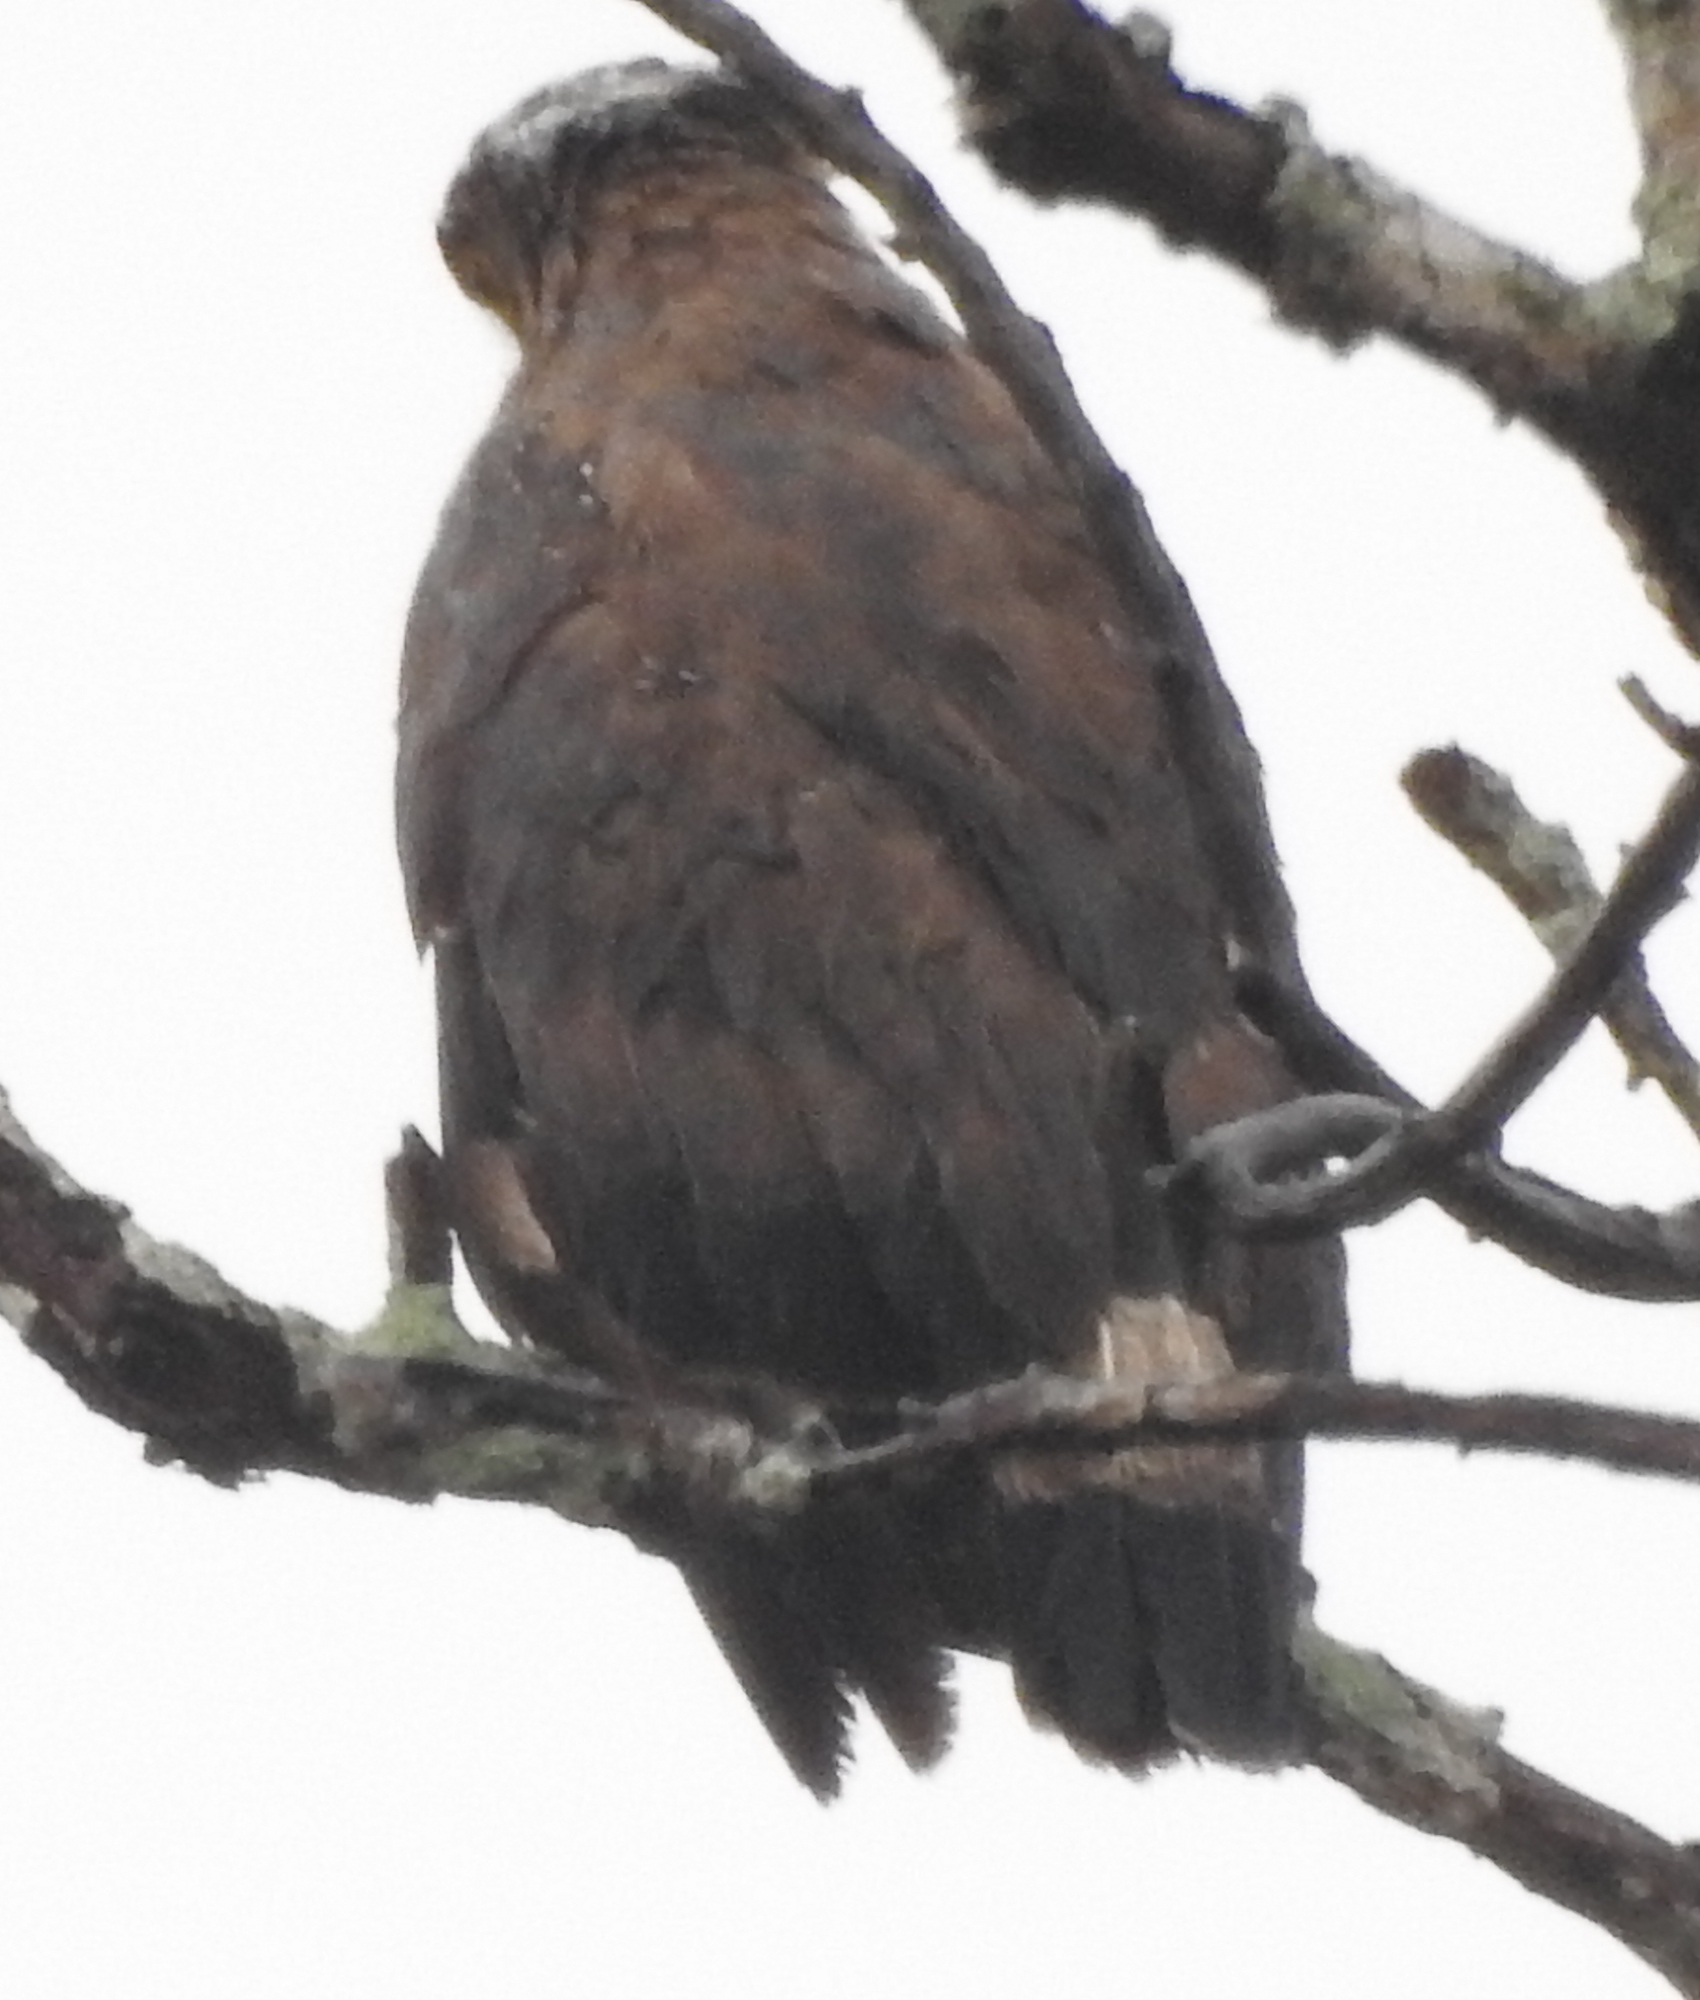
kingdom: Animalia
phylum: Chordata
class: Aves
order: Accipitriformes
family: Accipitridae
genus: Spilornis
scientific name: Spilornis cheela
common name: Crested serpent eagle
